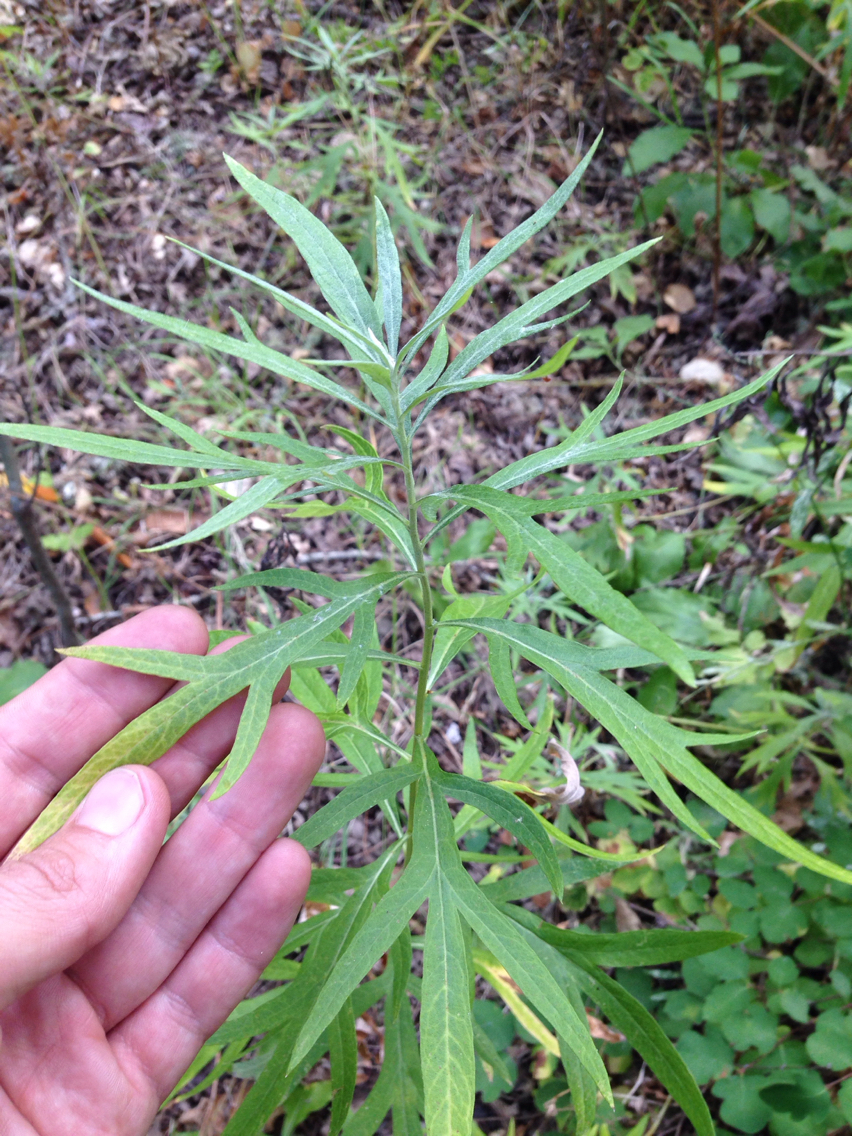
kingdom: Plantae
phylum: Tracheophyta
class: Magnoliopsida
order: Asterales
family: Asteraceae
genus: Artemisia
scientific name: Artemisia douglasiana
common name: Northwest mugwort
